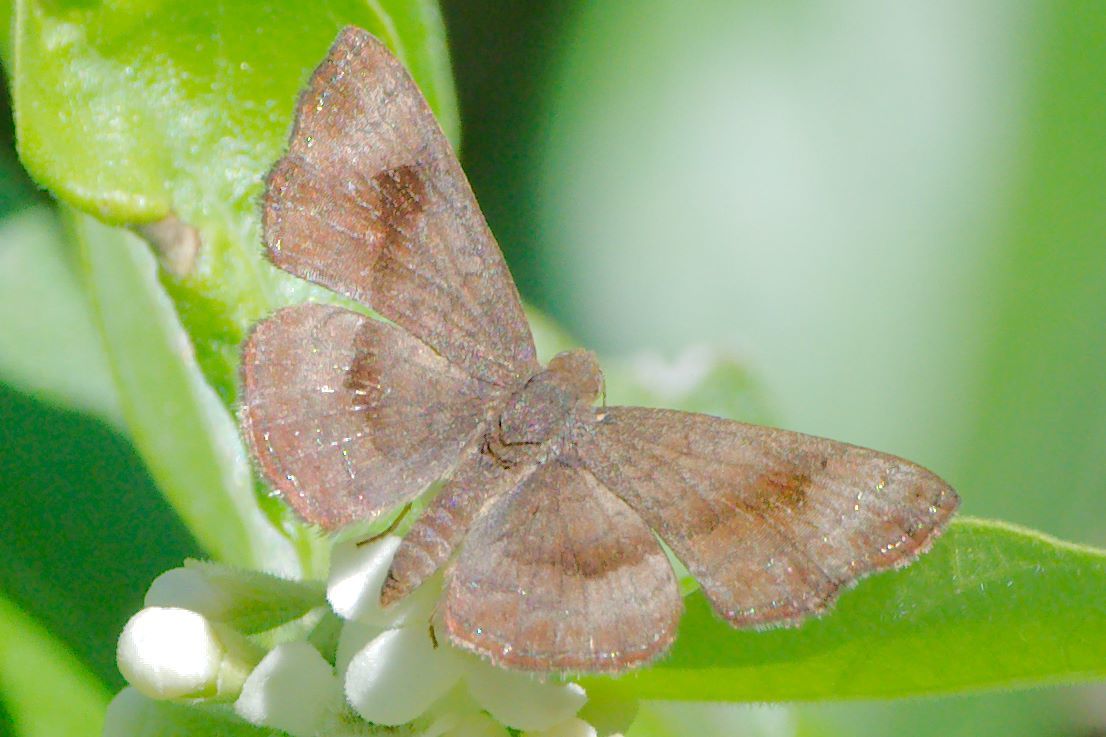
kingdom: Animalia
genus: Calephelis
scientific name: Calephelis nemesis
